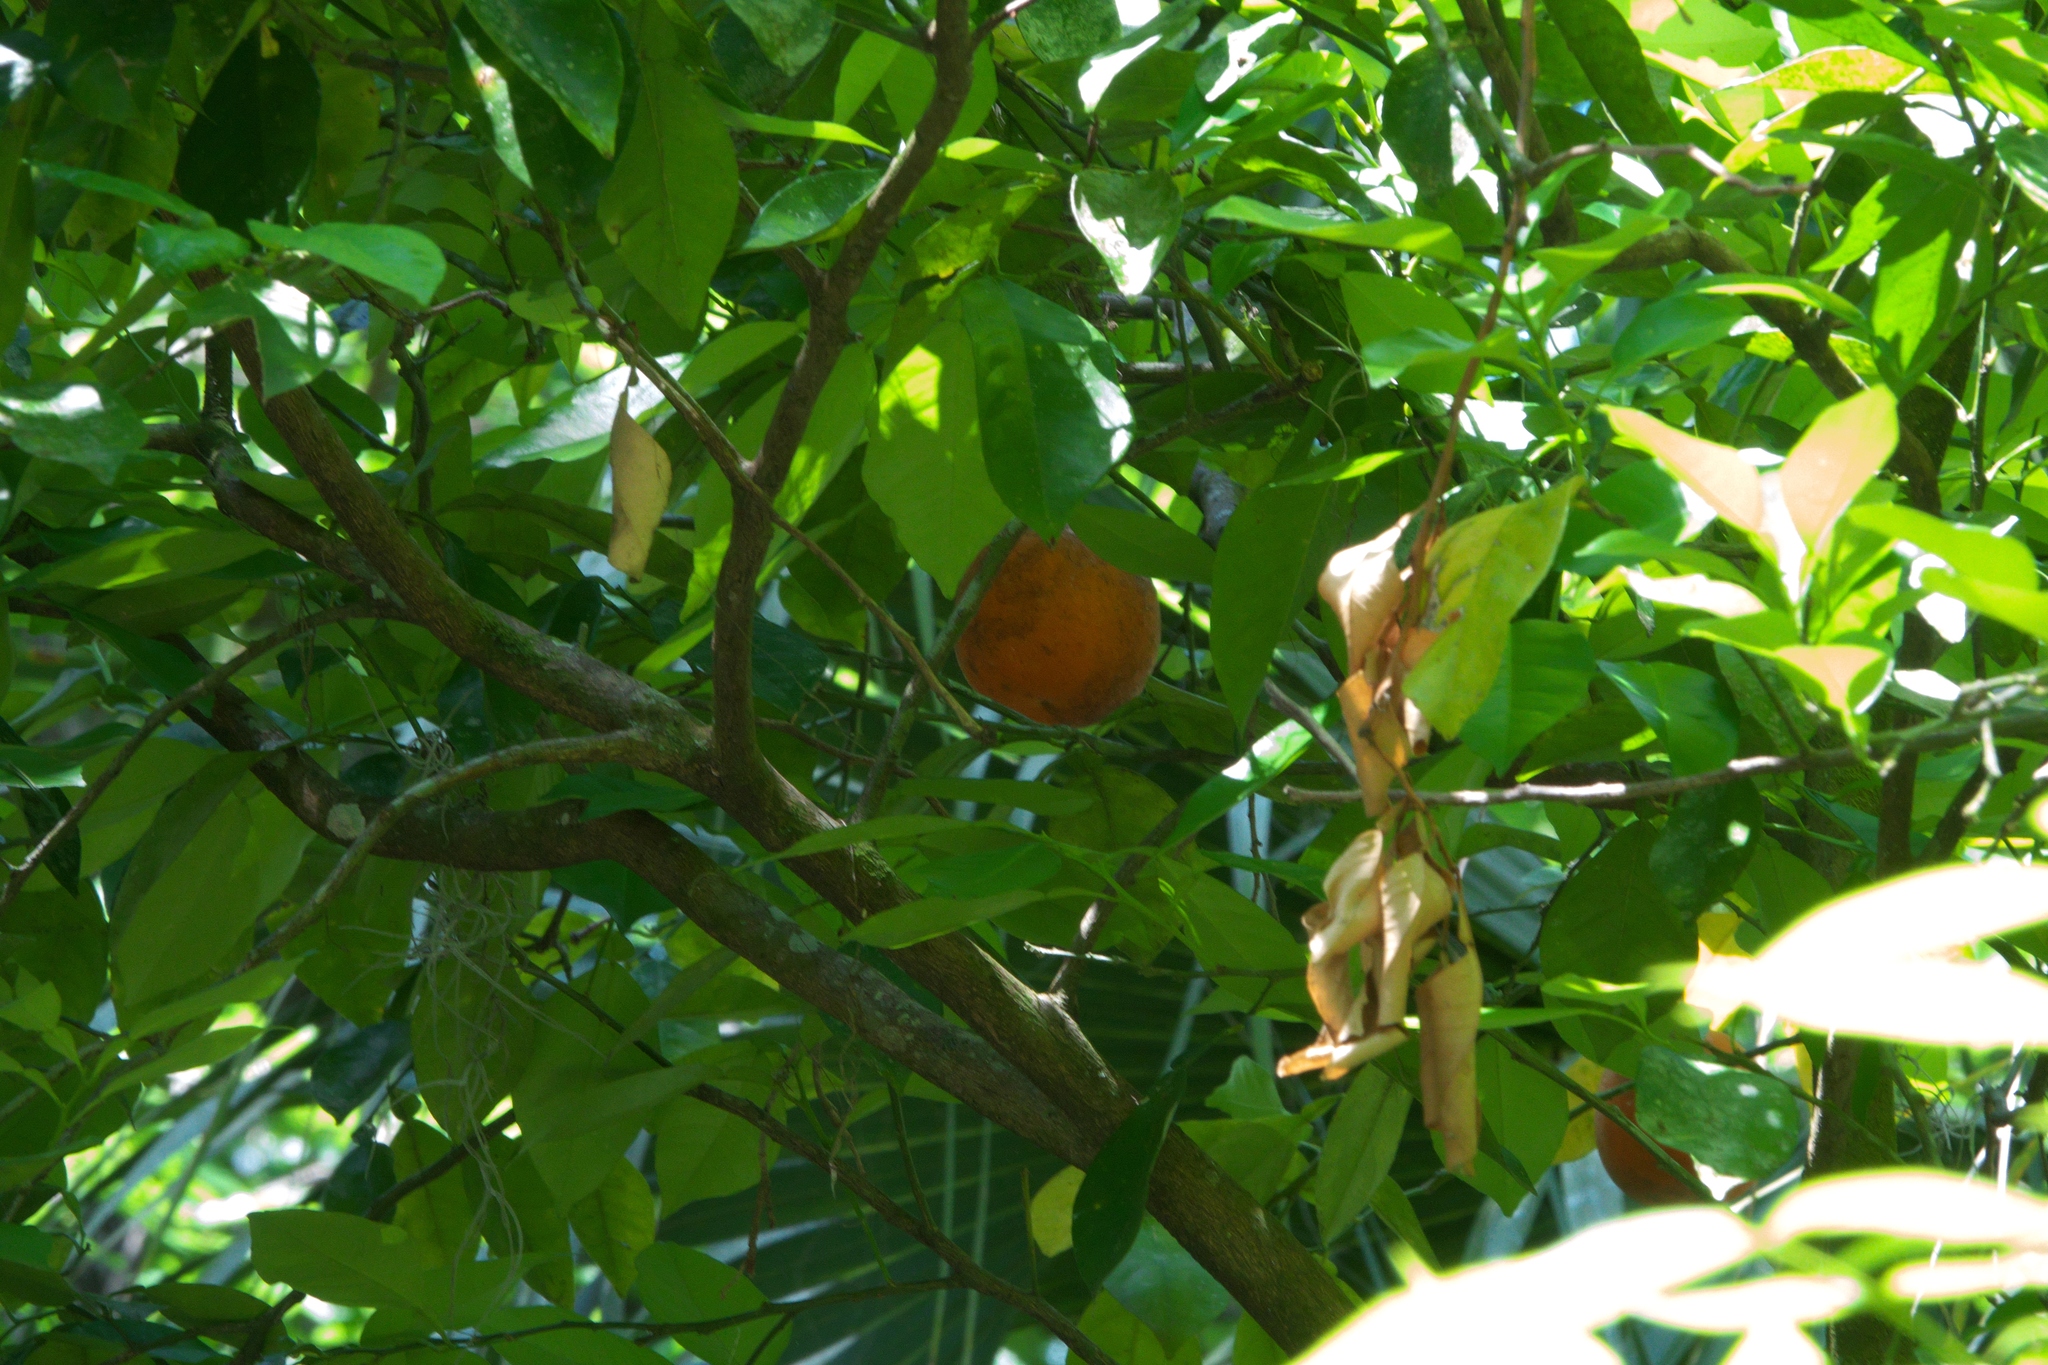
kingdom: Plantae
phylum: Tracheophyta
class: Magnoliopsida
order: Sapindales
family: Rutaceae
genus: Citrus
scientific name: Citrus aurantium
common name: Sour orange
